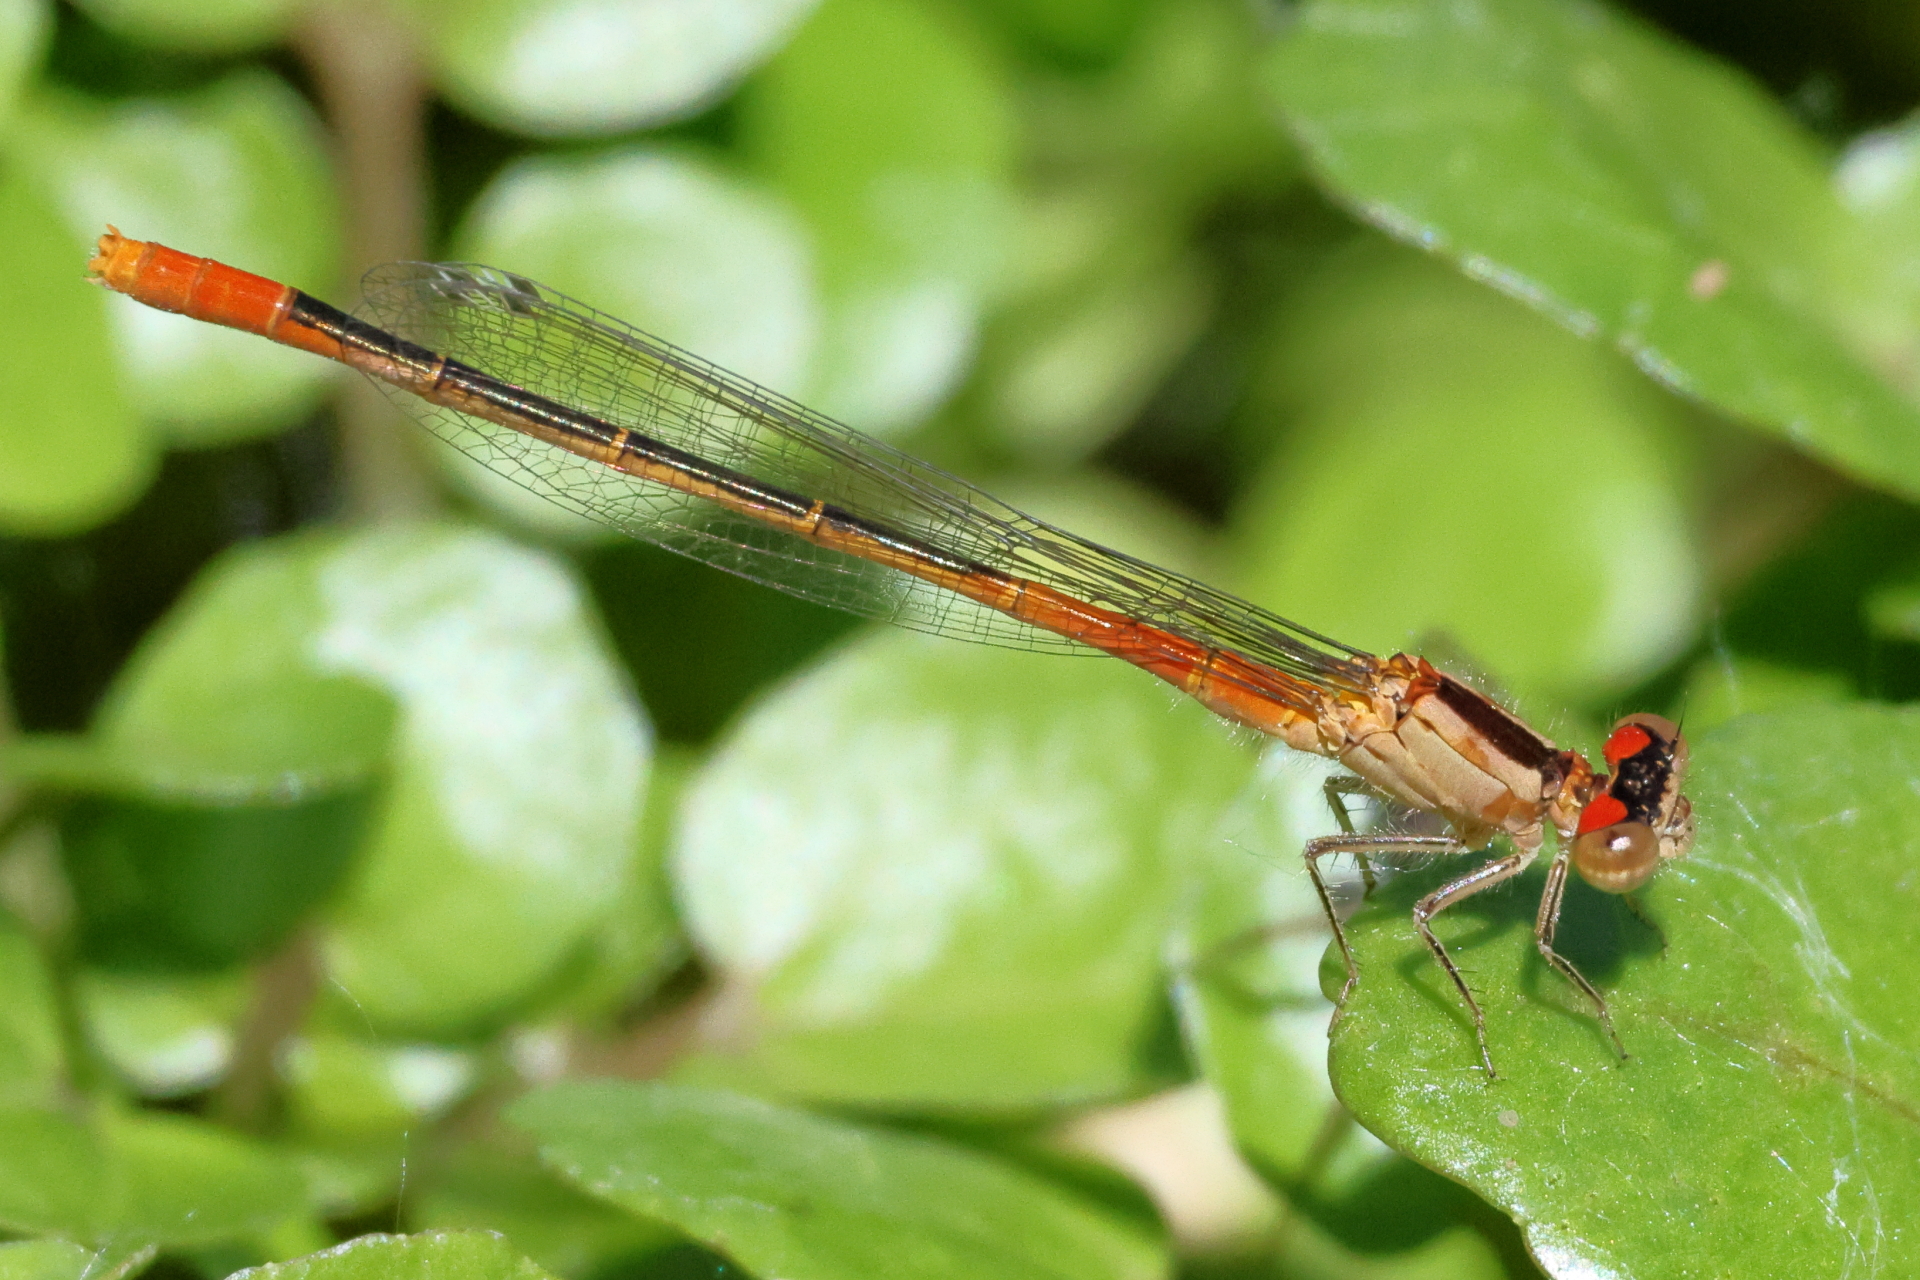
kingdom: Animalia
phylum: Arthropoda
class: Insecta
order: Odonata
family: Coenagrionidae
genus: Hesperagrion
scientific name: Hesperagrion heterodoxum
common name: Painted damsel
